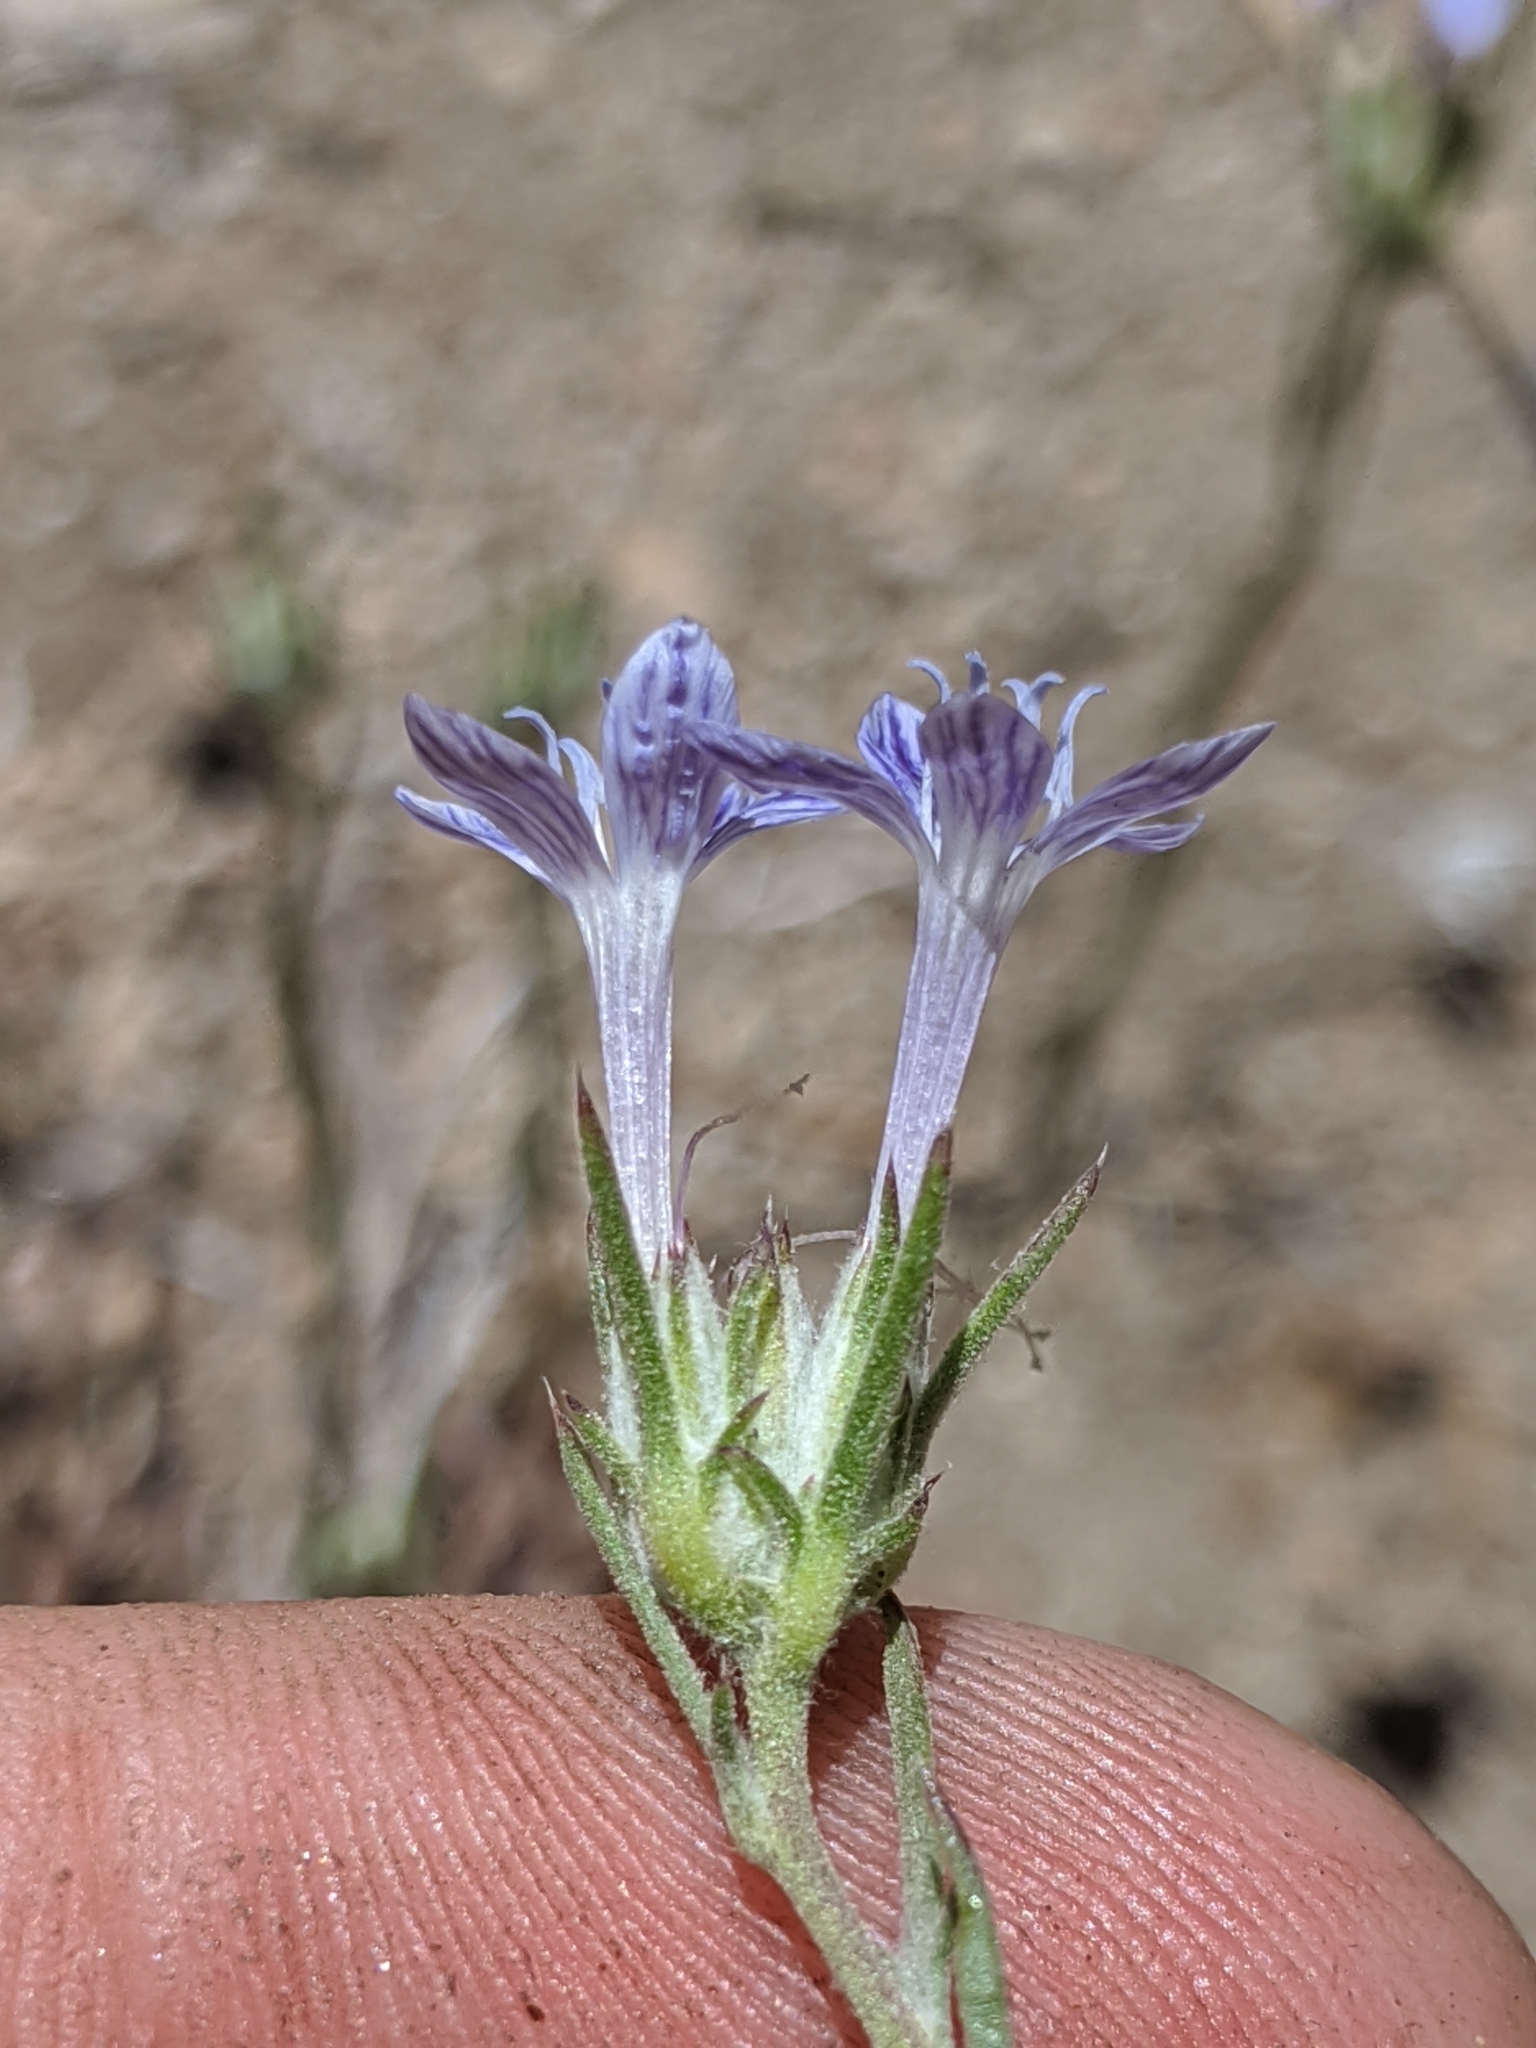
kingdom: Plantae
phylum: Tracheophyta
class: Magnoliopsida
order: Ericales
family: Polemoniaceae
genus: Eriastrum
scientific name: Eriastrum densifolium
